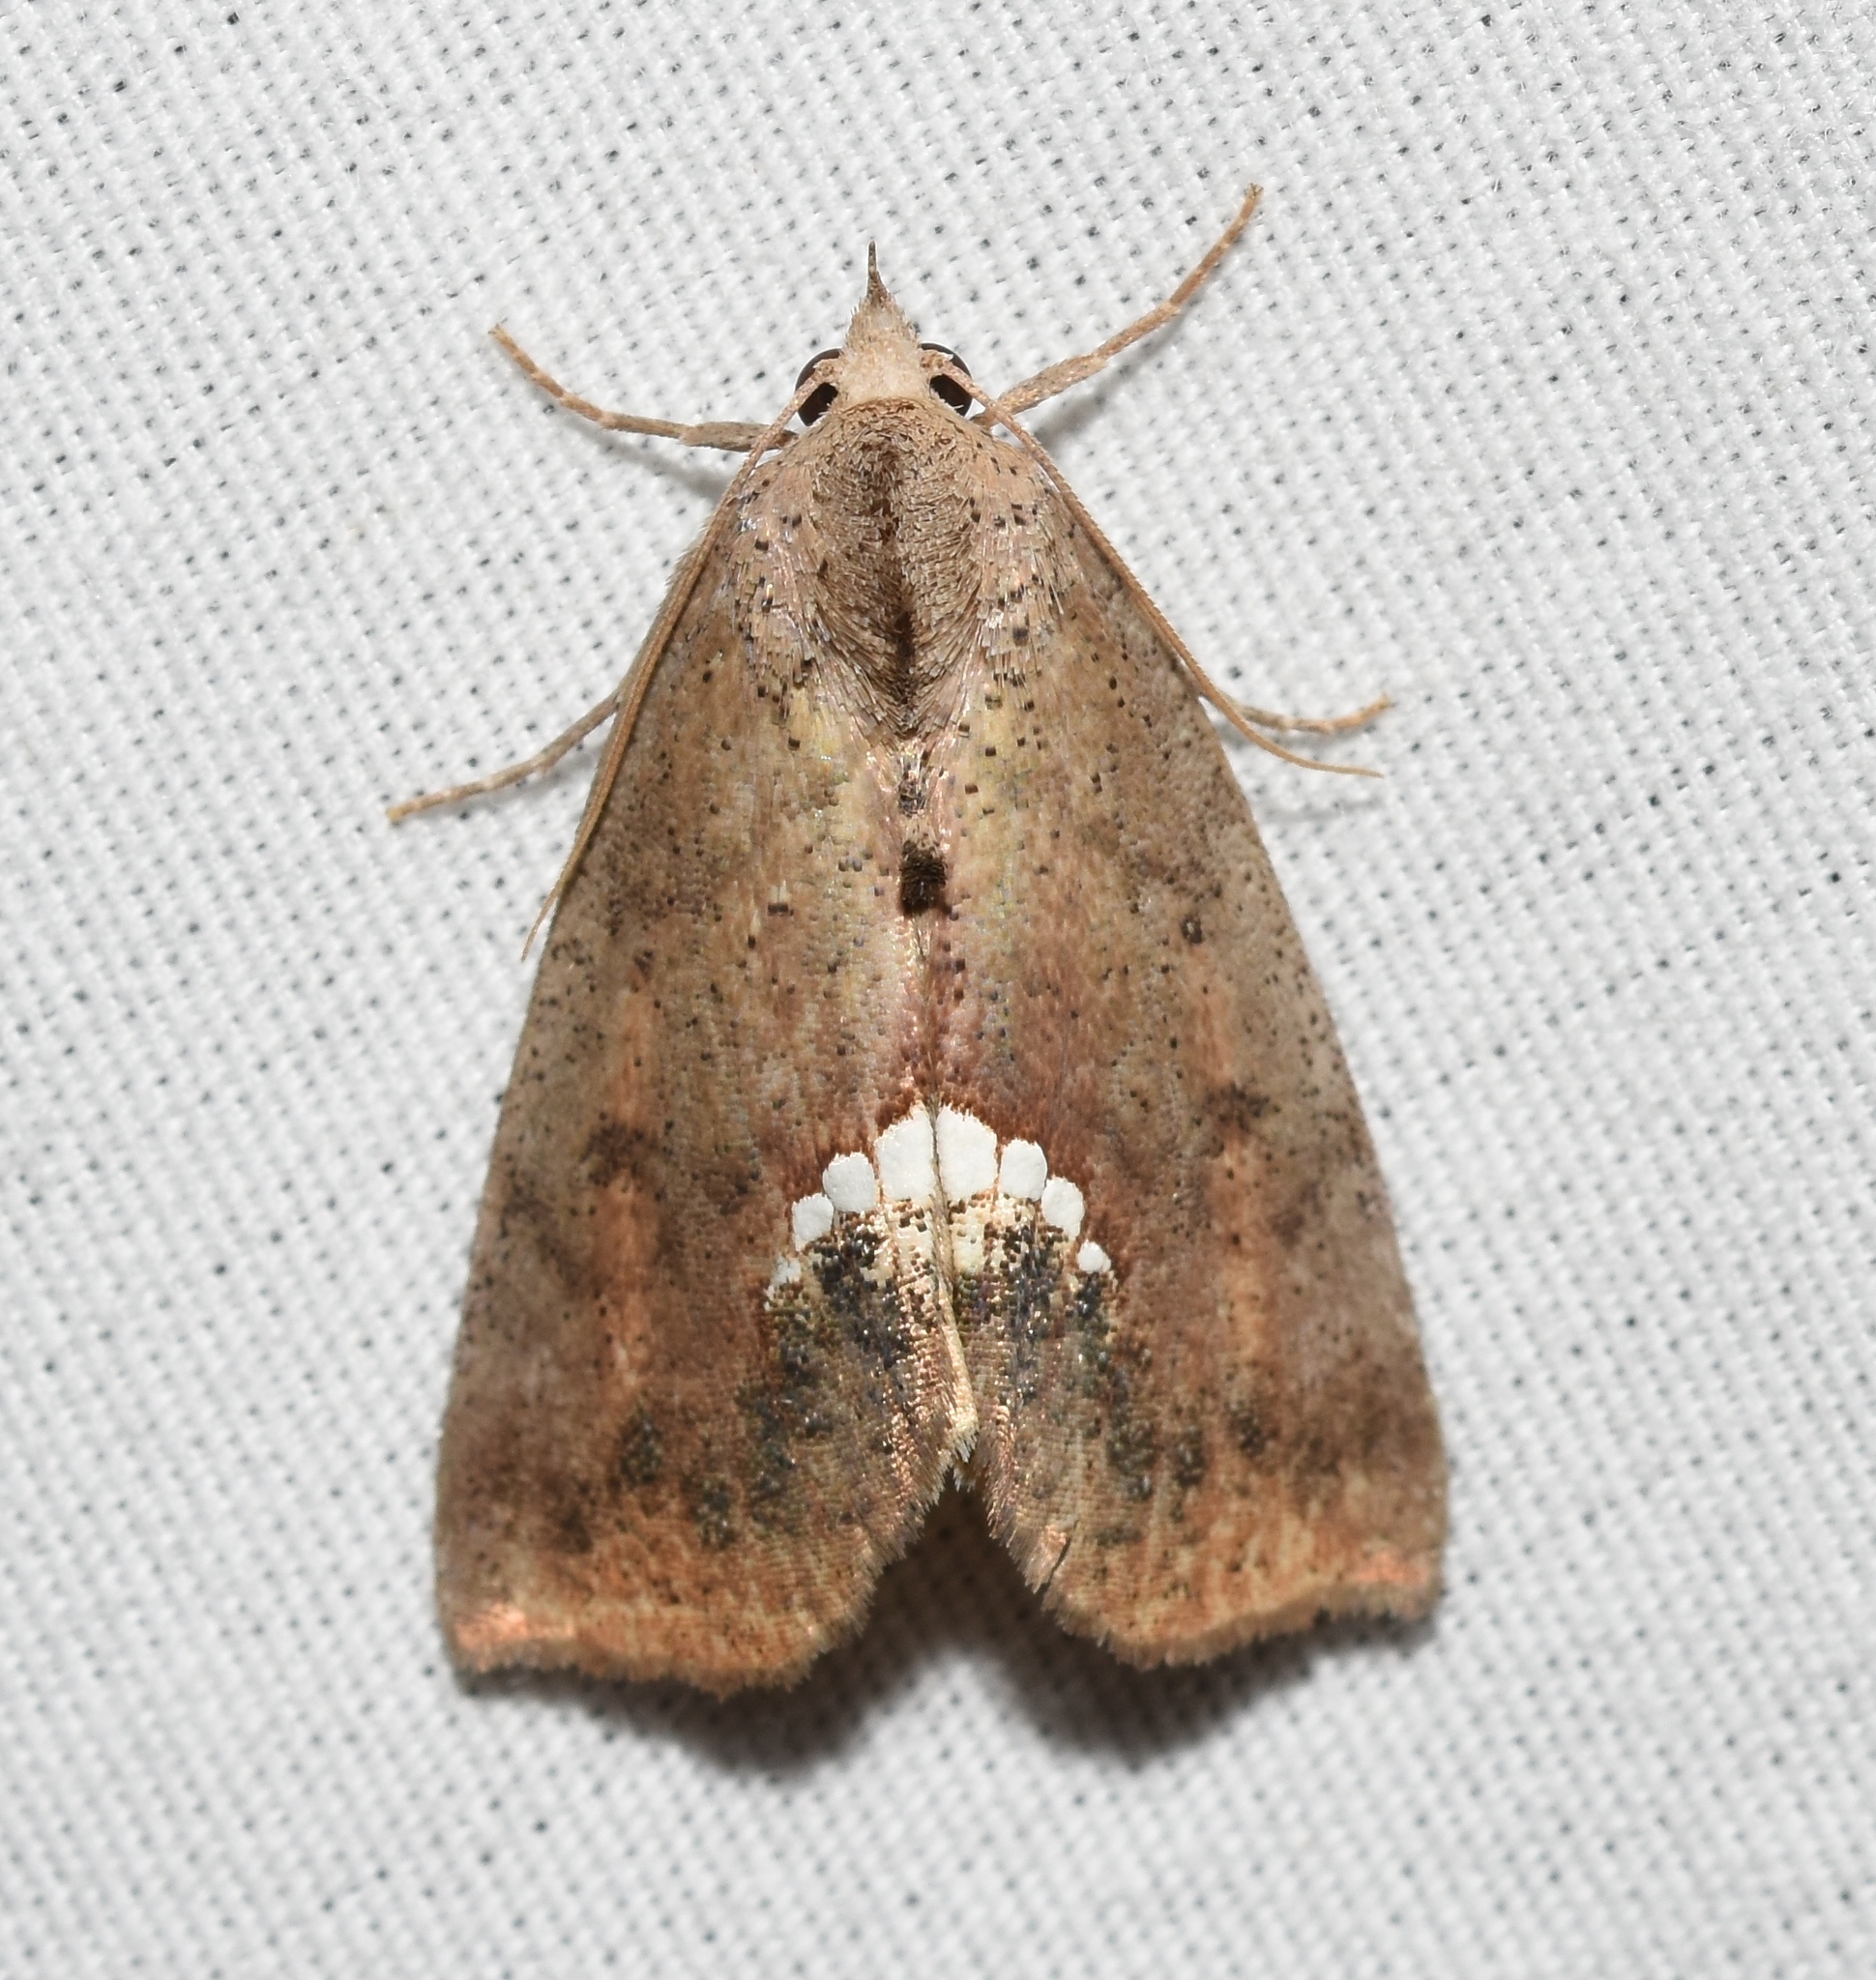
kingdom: Animalia
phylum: Arthropoda
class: Insecta
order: Lepidoptera
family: Erebidae
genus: Hypsoropha
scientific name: Hypsoropha hormos
